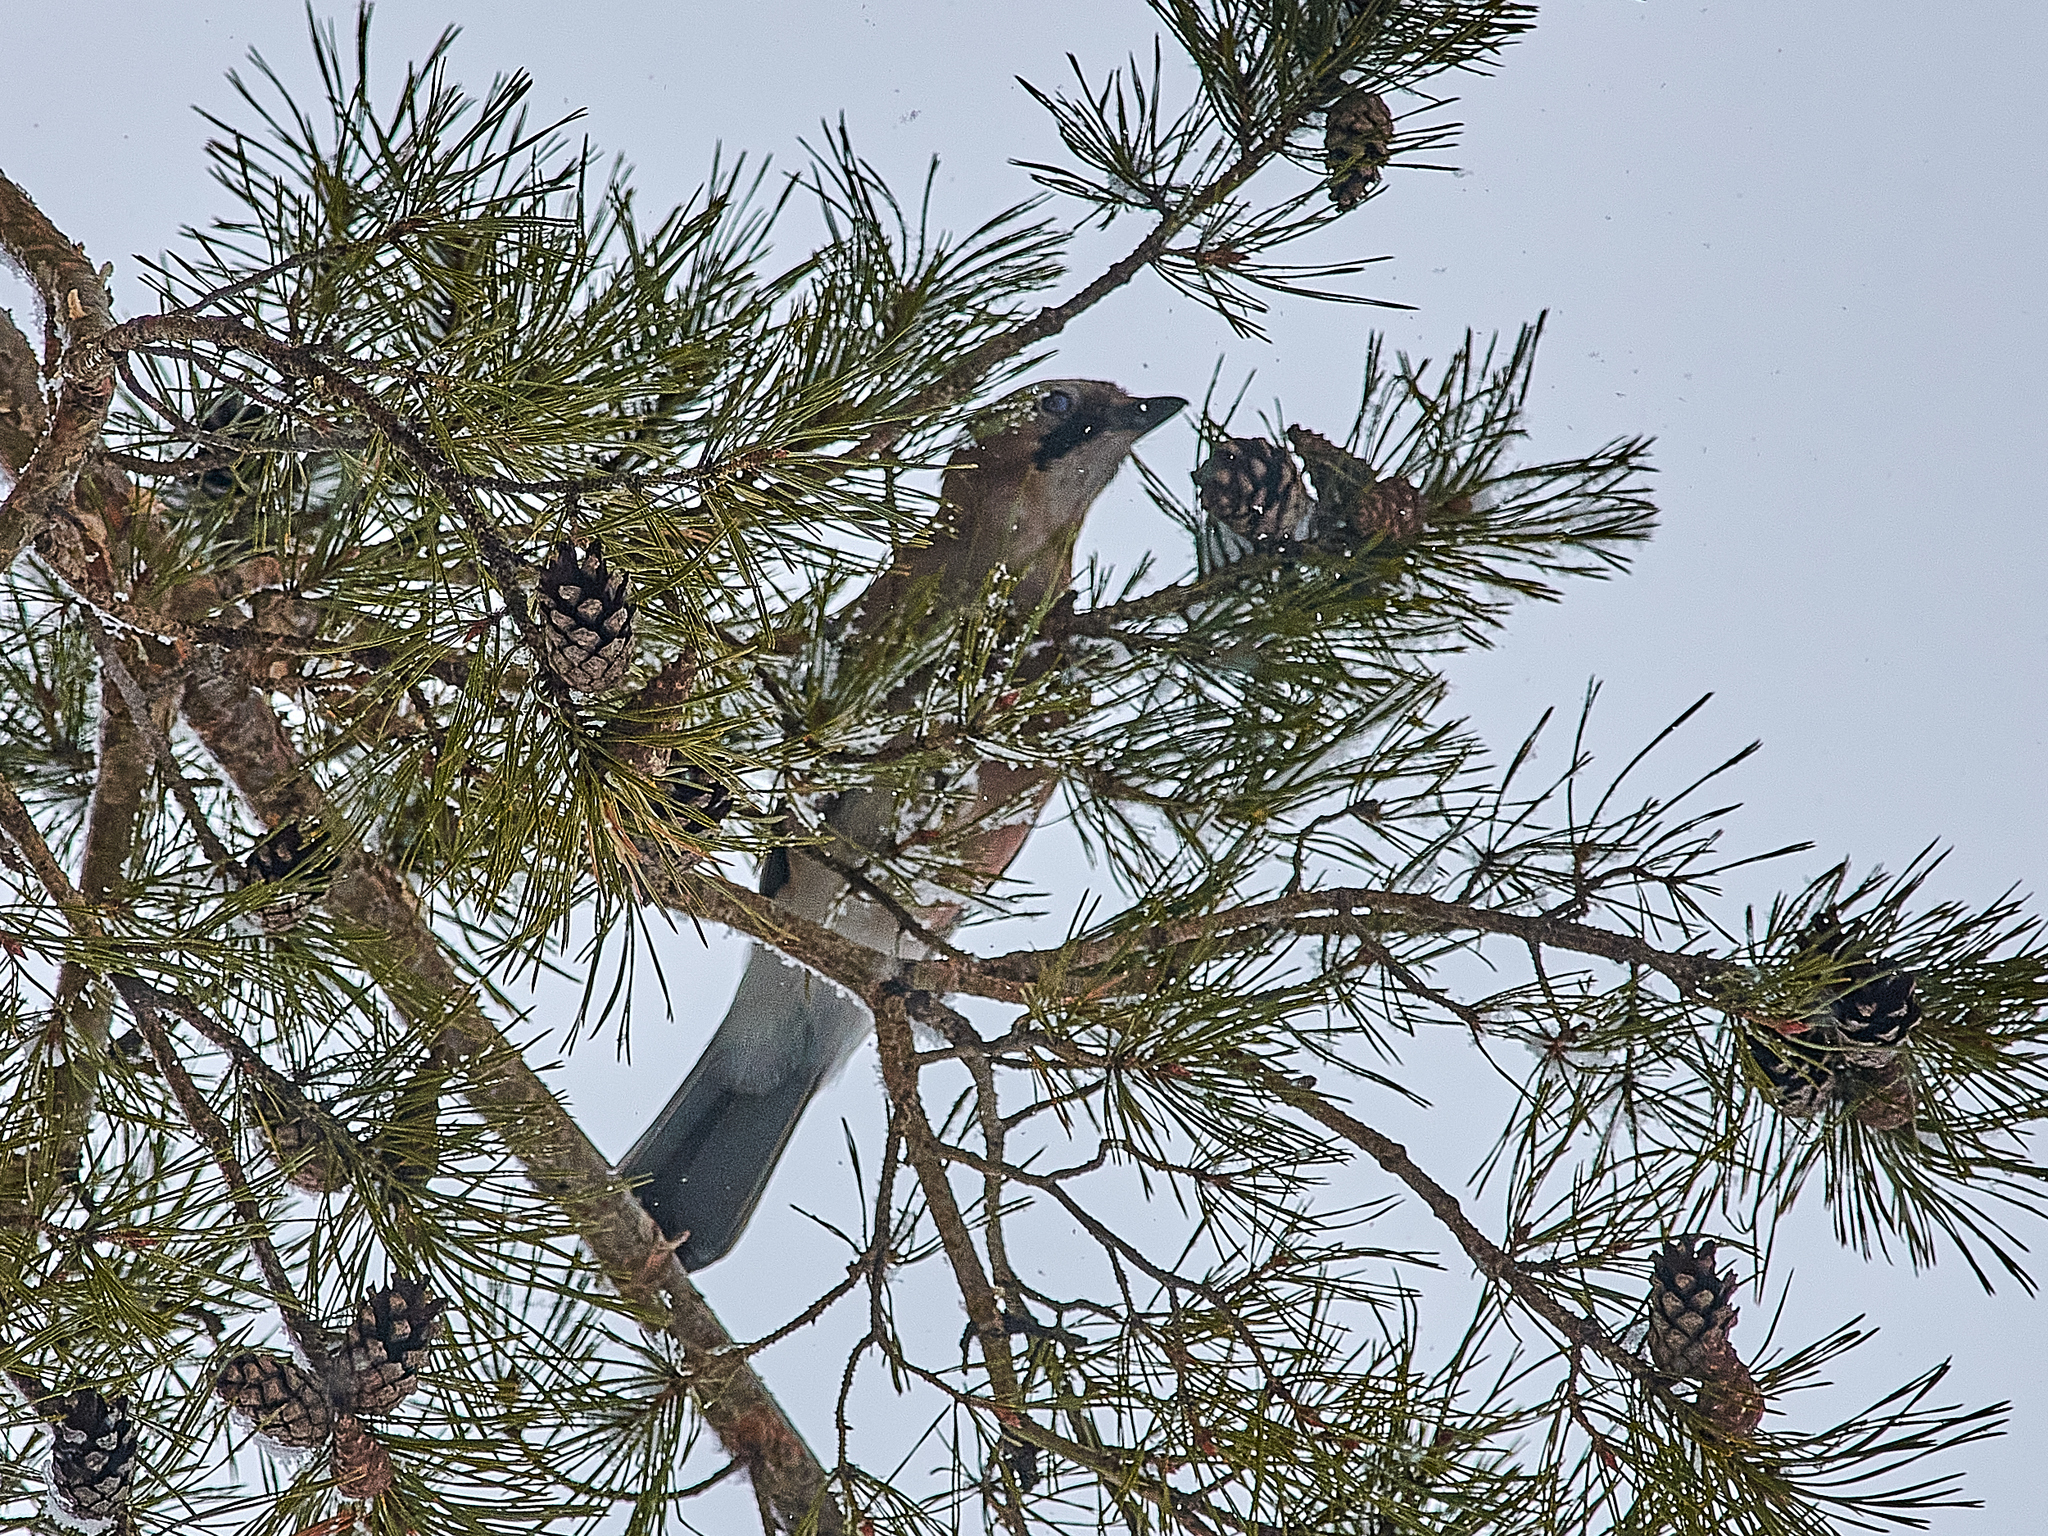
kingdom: Animalia
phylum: Chordata
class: Aves
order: Passeriformes
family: Corvidae
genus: Garrulus
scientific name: Garrulus glandarius
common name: Eurasian jay
